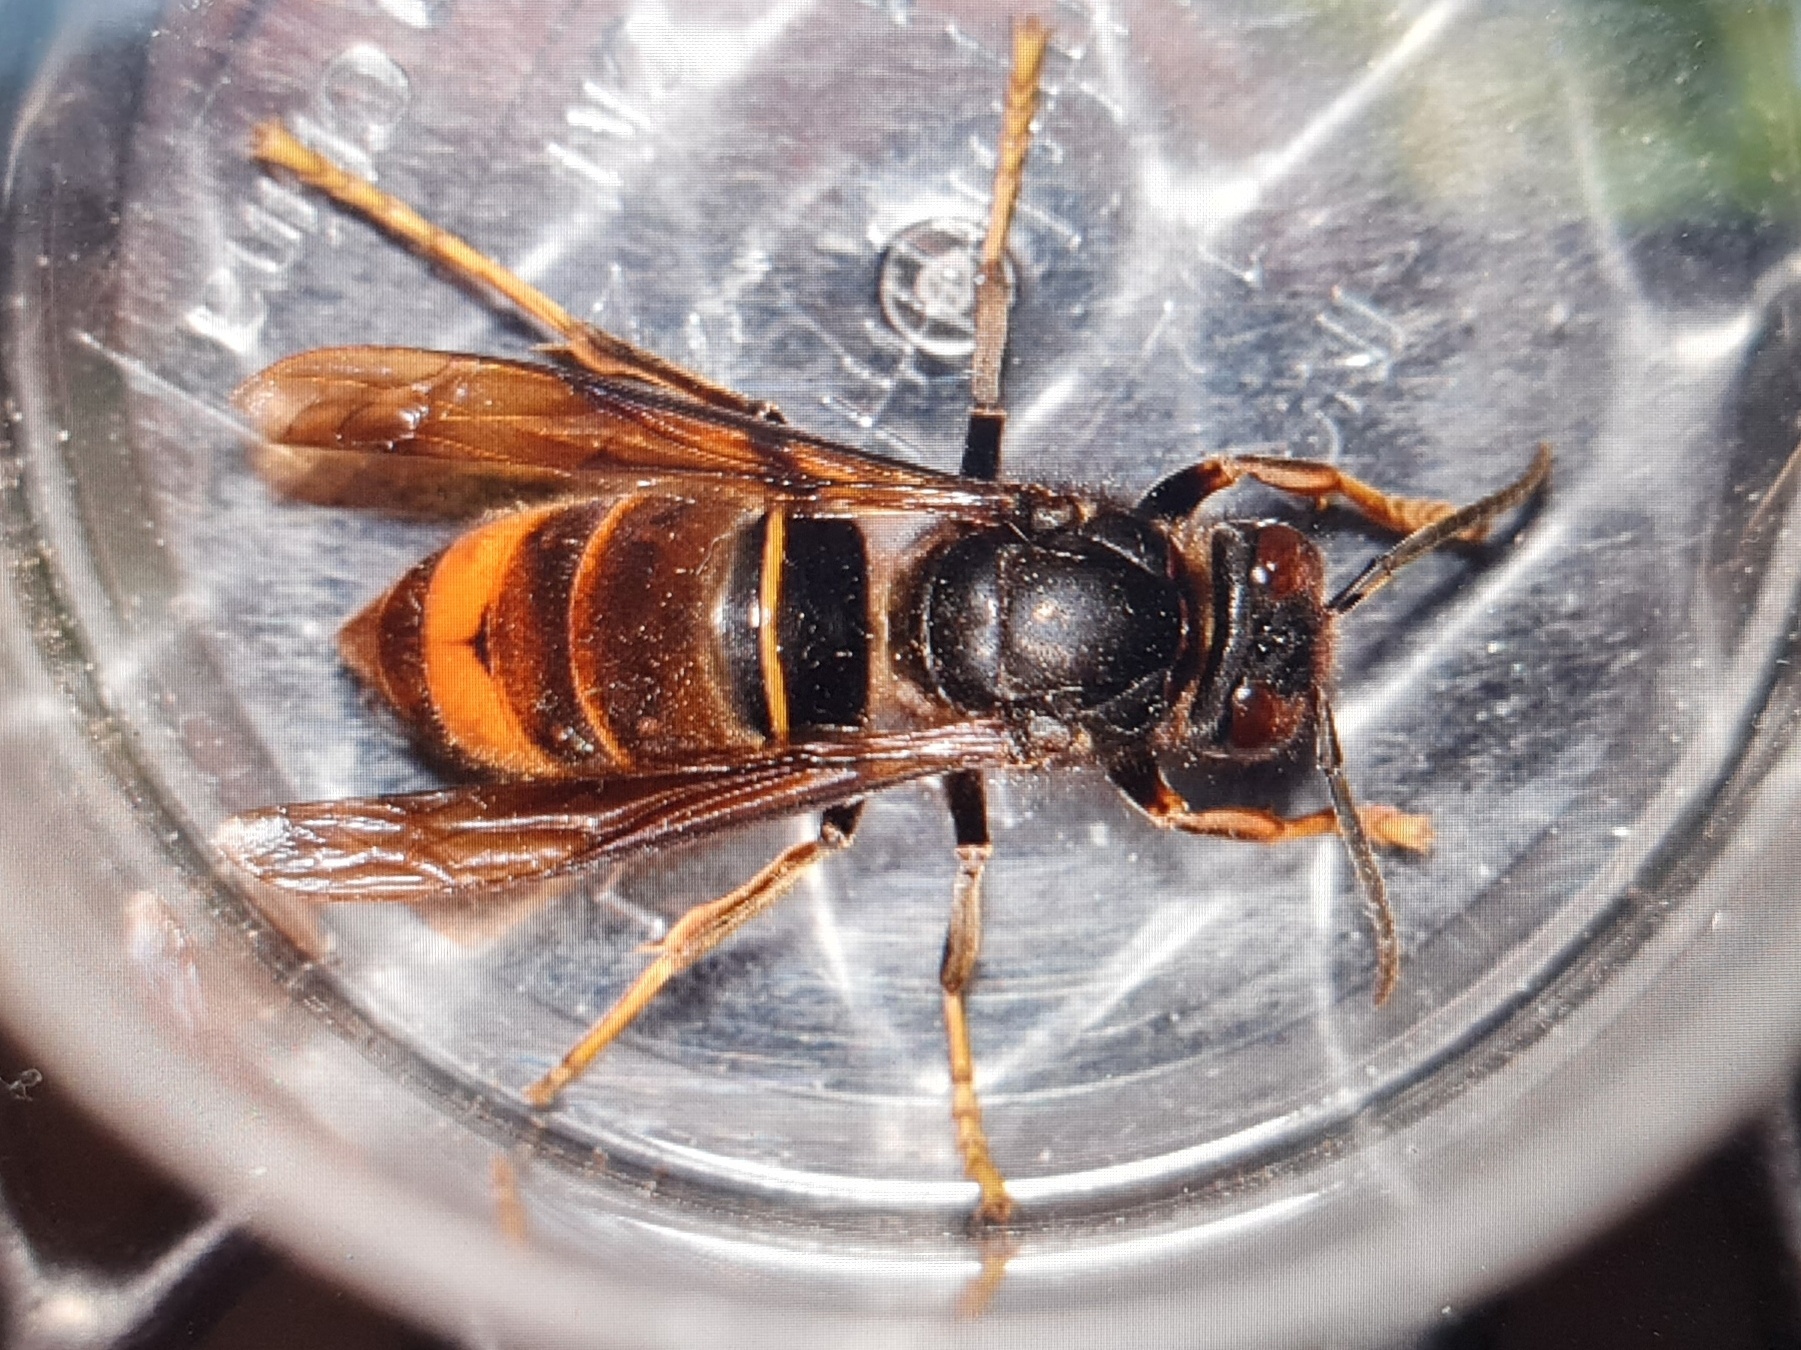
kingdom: Animalia
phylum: Arthropoda
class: Insecta
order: Hymenoptera
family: Vespidae
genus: Vespa
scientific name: Vespa velutina
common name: Asian hornet
